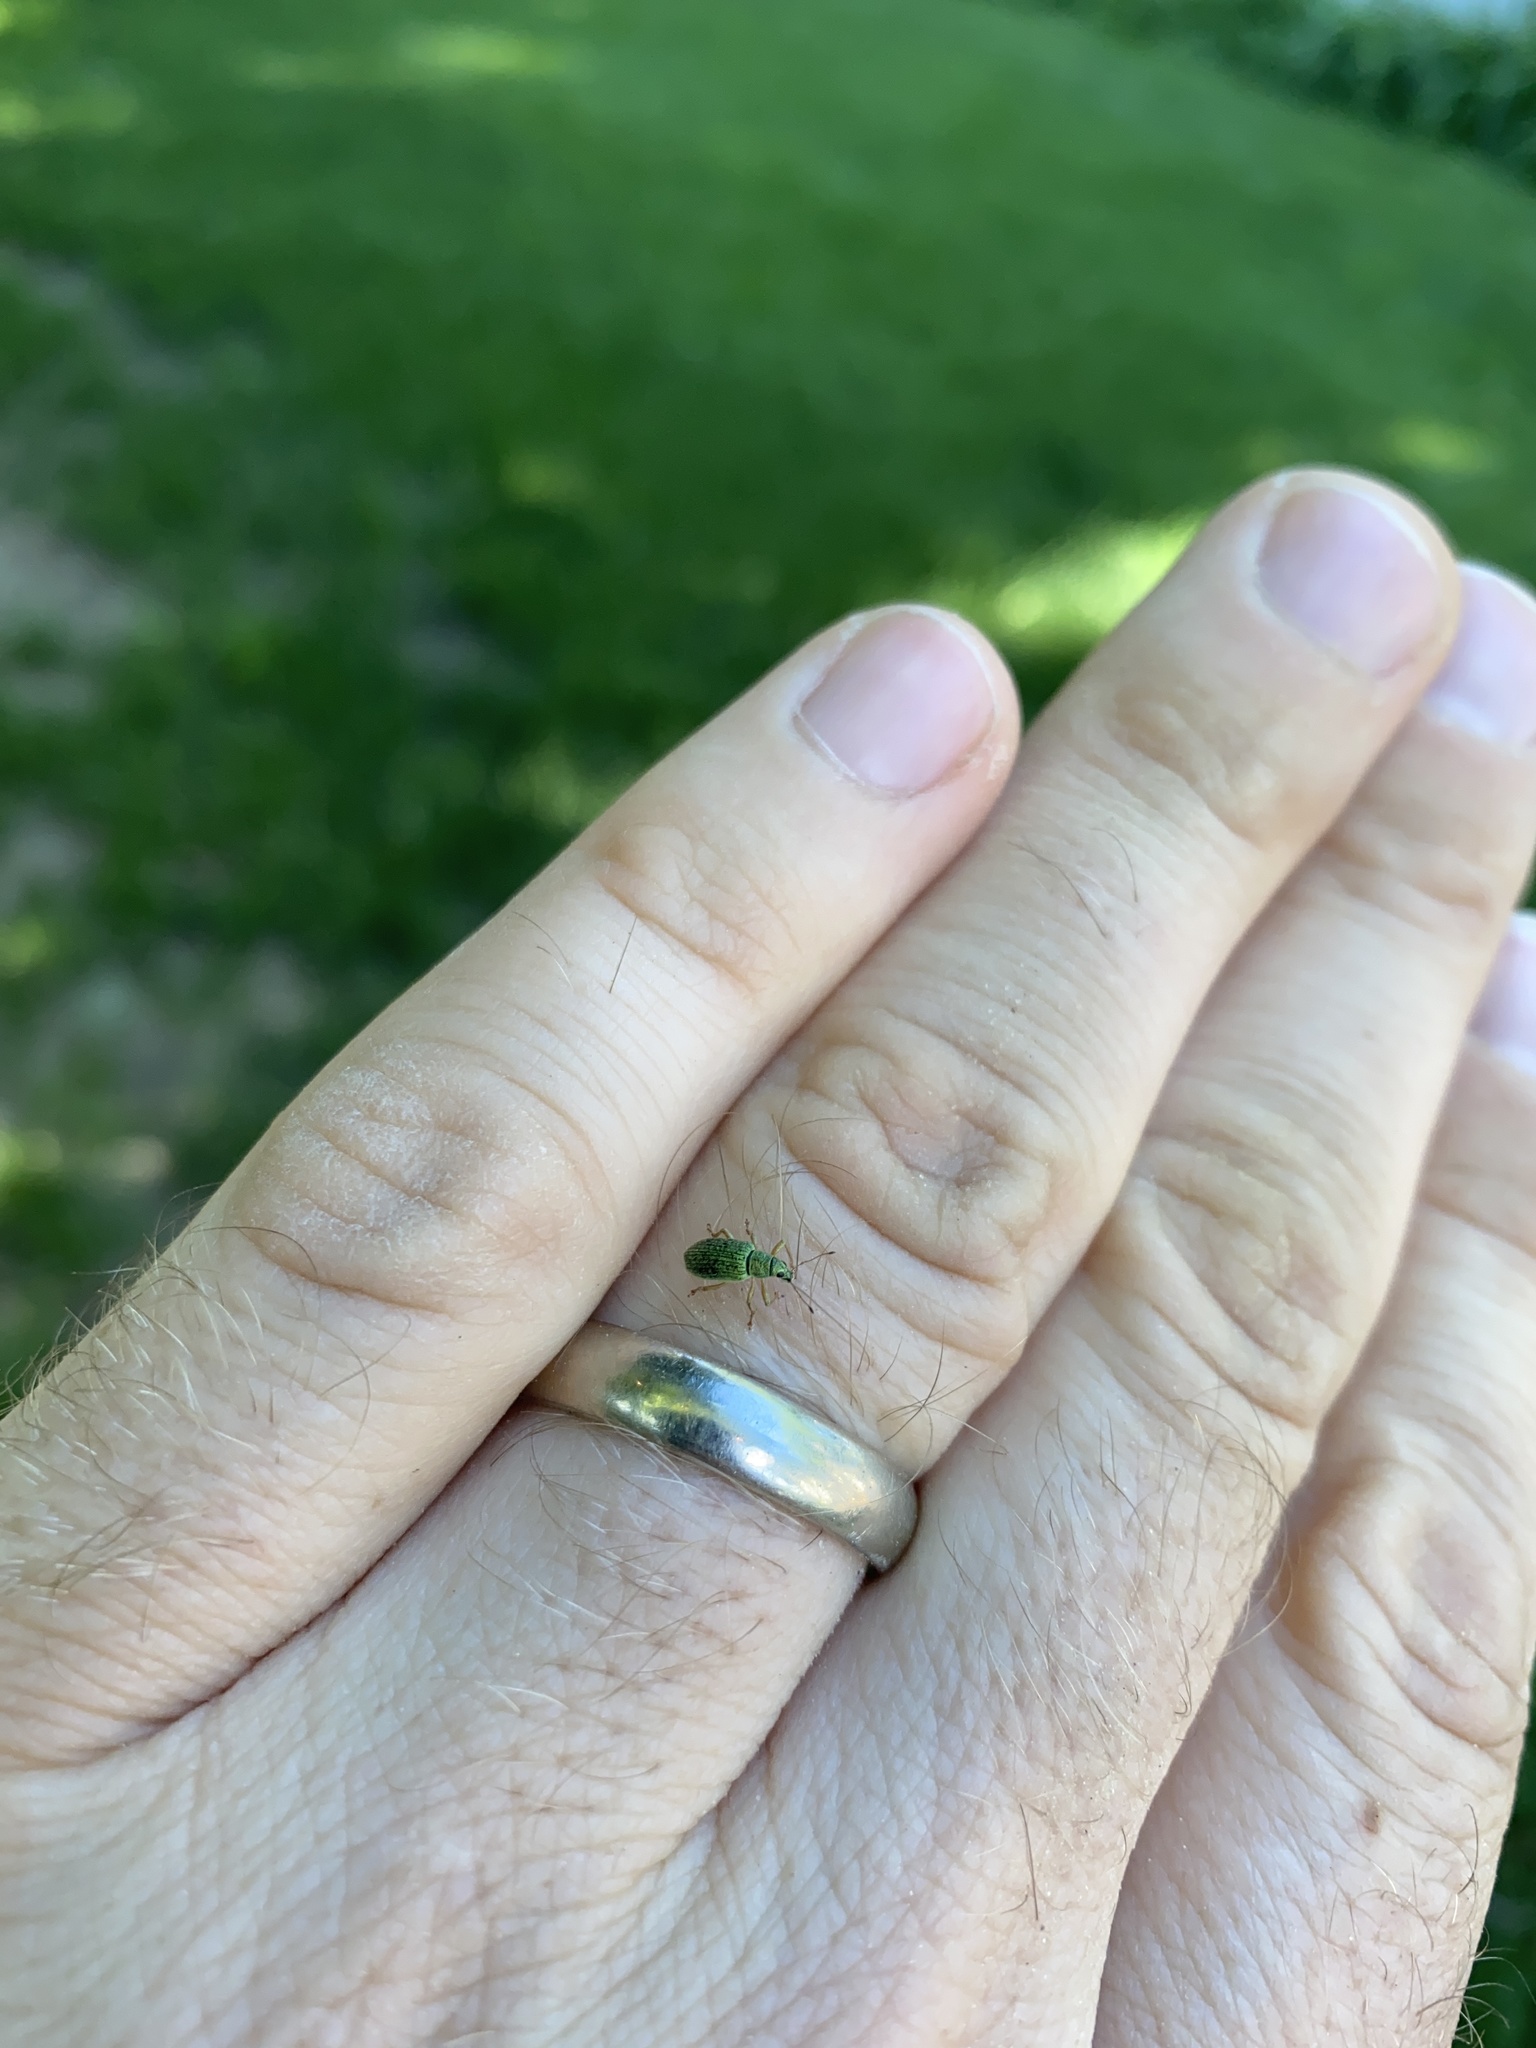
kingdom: Animalia
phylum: Arthropoda
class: Insecta
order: Coleoptera
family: Curculionidae
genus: Polydrusus
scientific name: Polydrusus formosus
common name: Weevil
